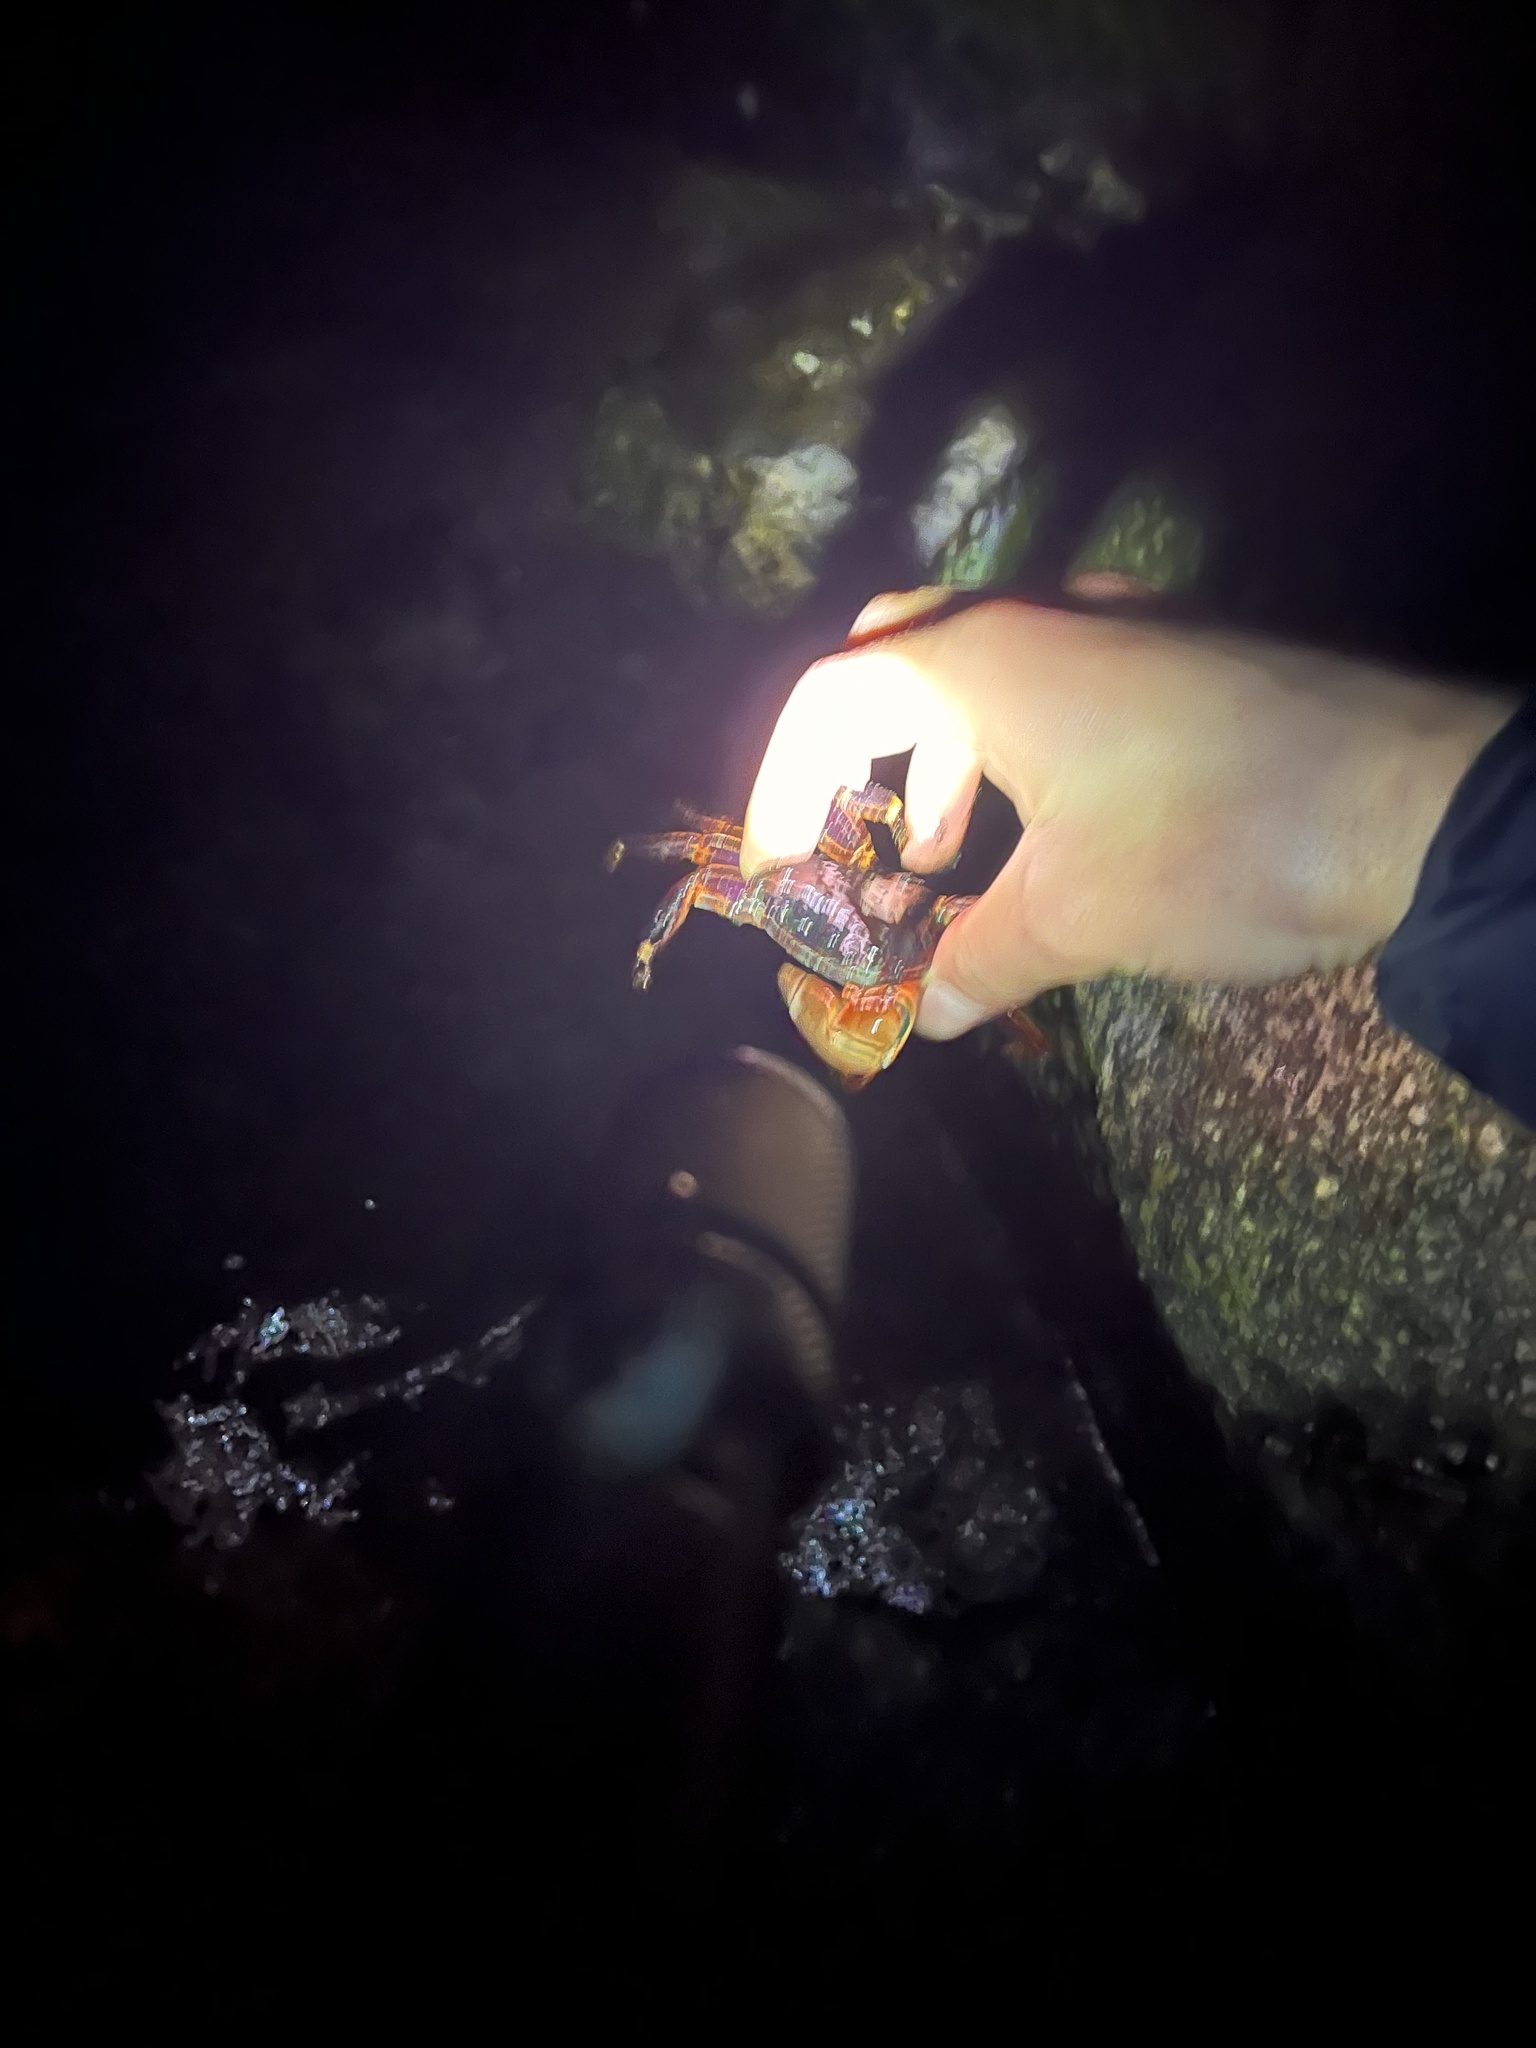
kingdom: Animalia
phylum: Arthropoda
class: Malacostraca
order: Decapoda
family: Grapsidae
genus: Pachygrapsus
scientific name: Pachygrapsus crassipes
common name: Striped shore crab
